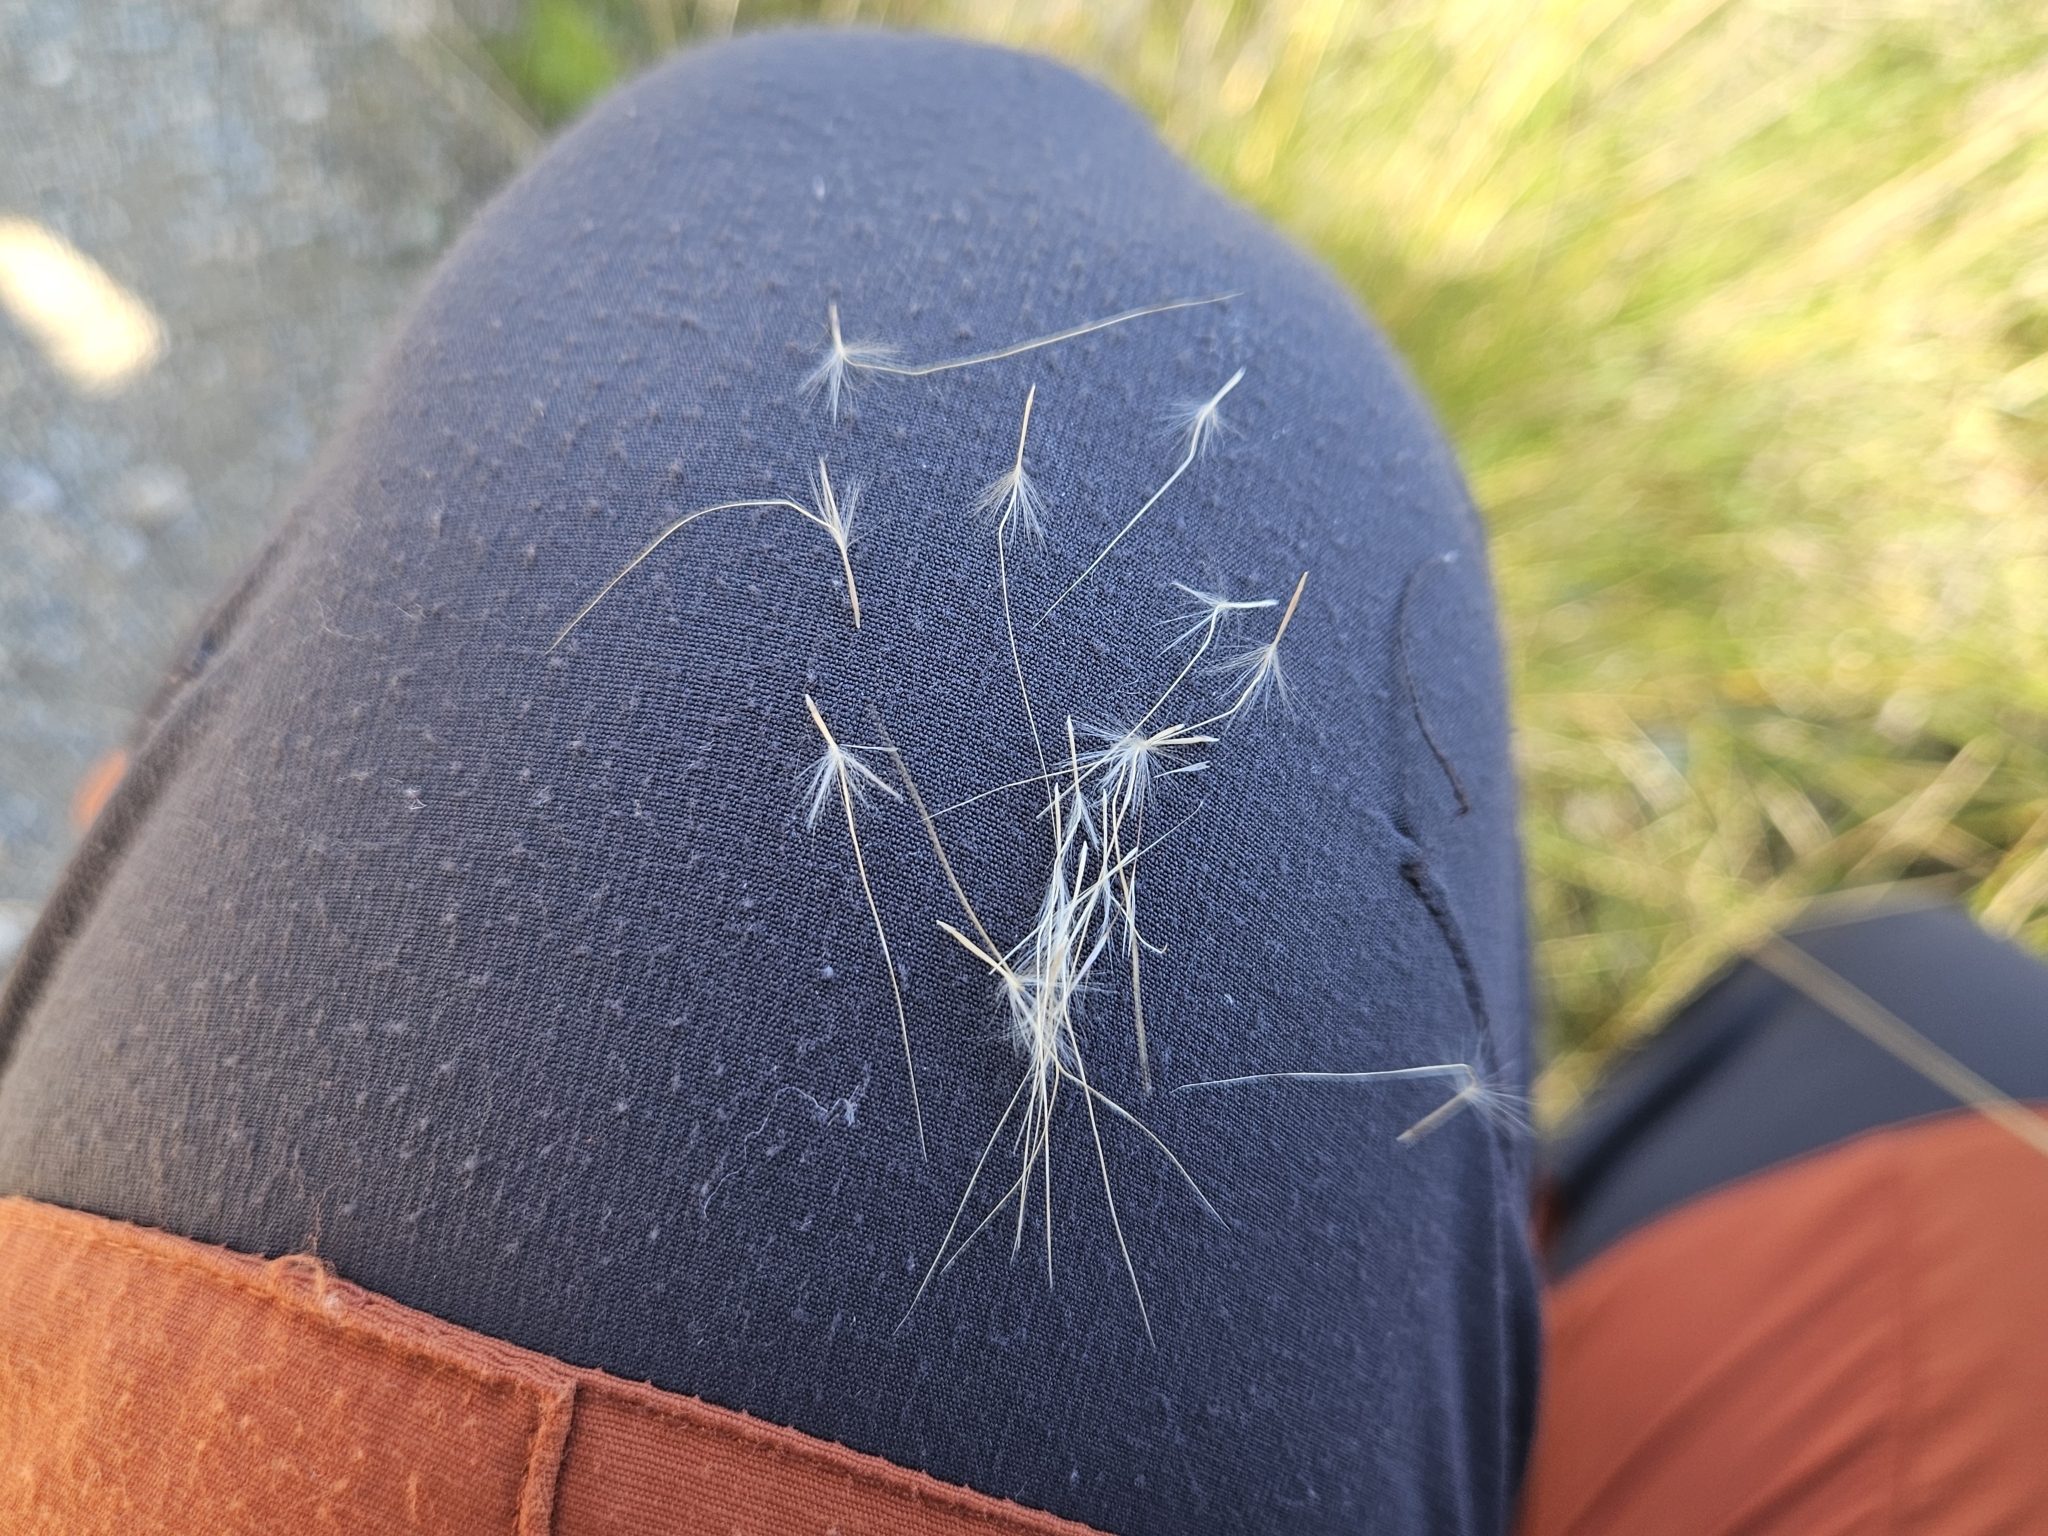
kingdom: Plantae
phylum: Tracheophyta
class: Liliopsida
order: Poales
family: Poaceae
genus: Jarava
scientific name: Jarava plumosa
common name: South american rice grass
